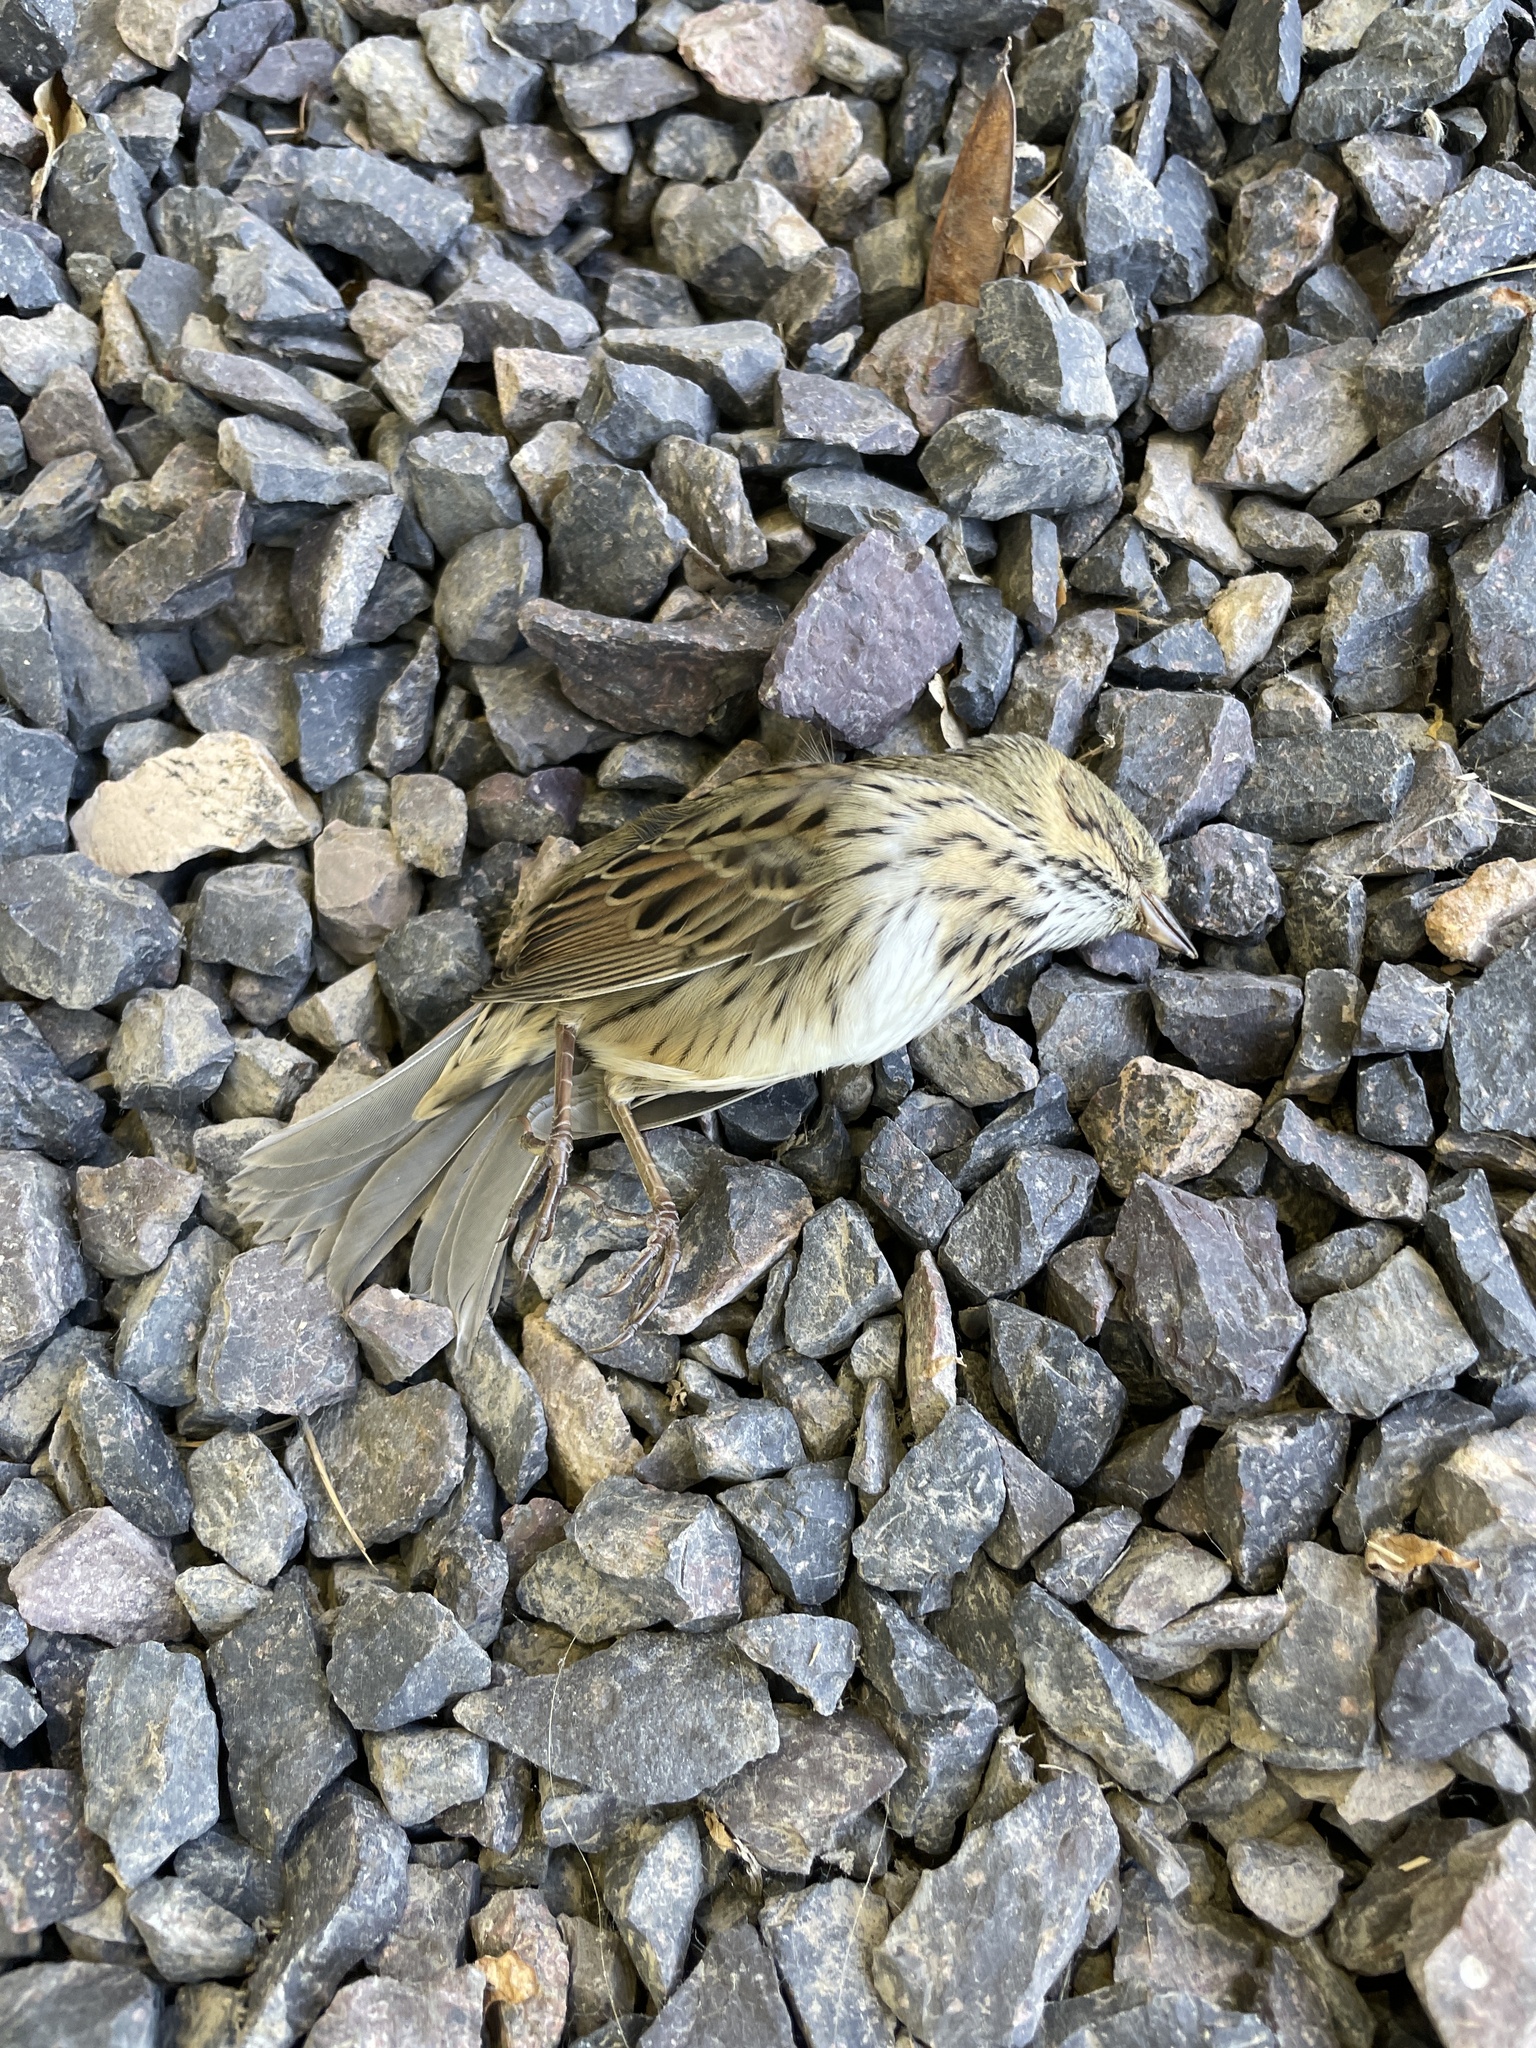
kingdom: Animalia
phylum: Chordata
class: Aves
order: Passeriformes
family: Passerellidae
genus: Melospiza
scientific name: Melospiza lincolnii
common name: Lincoln's sparrow
